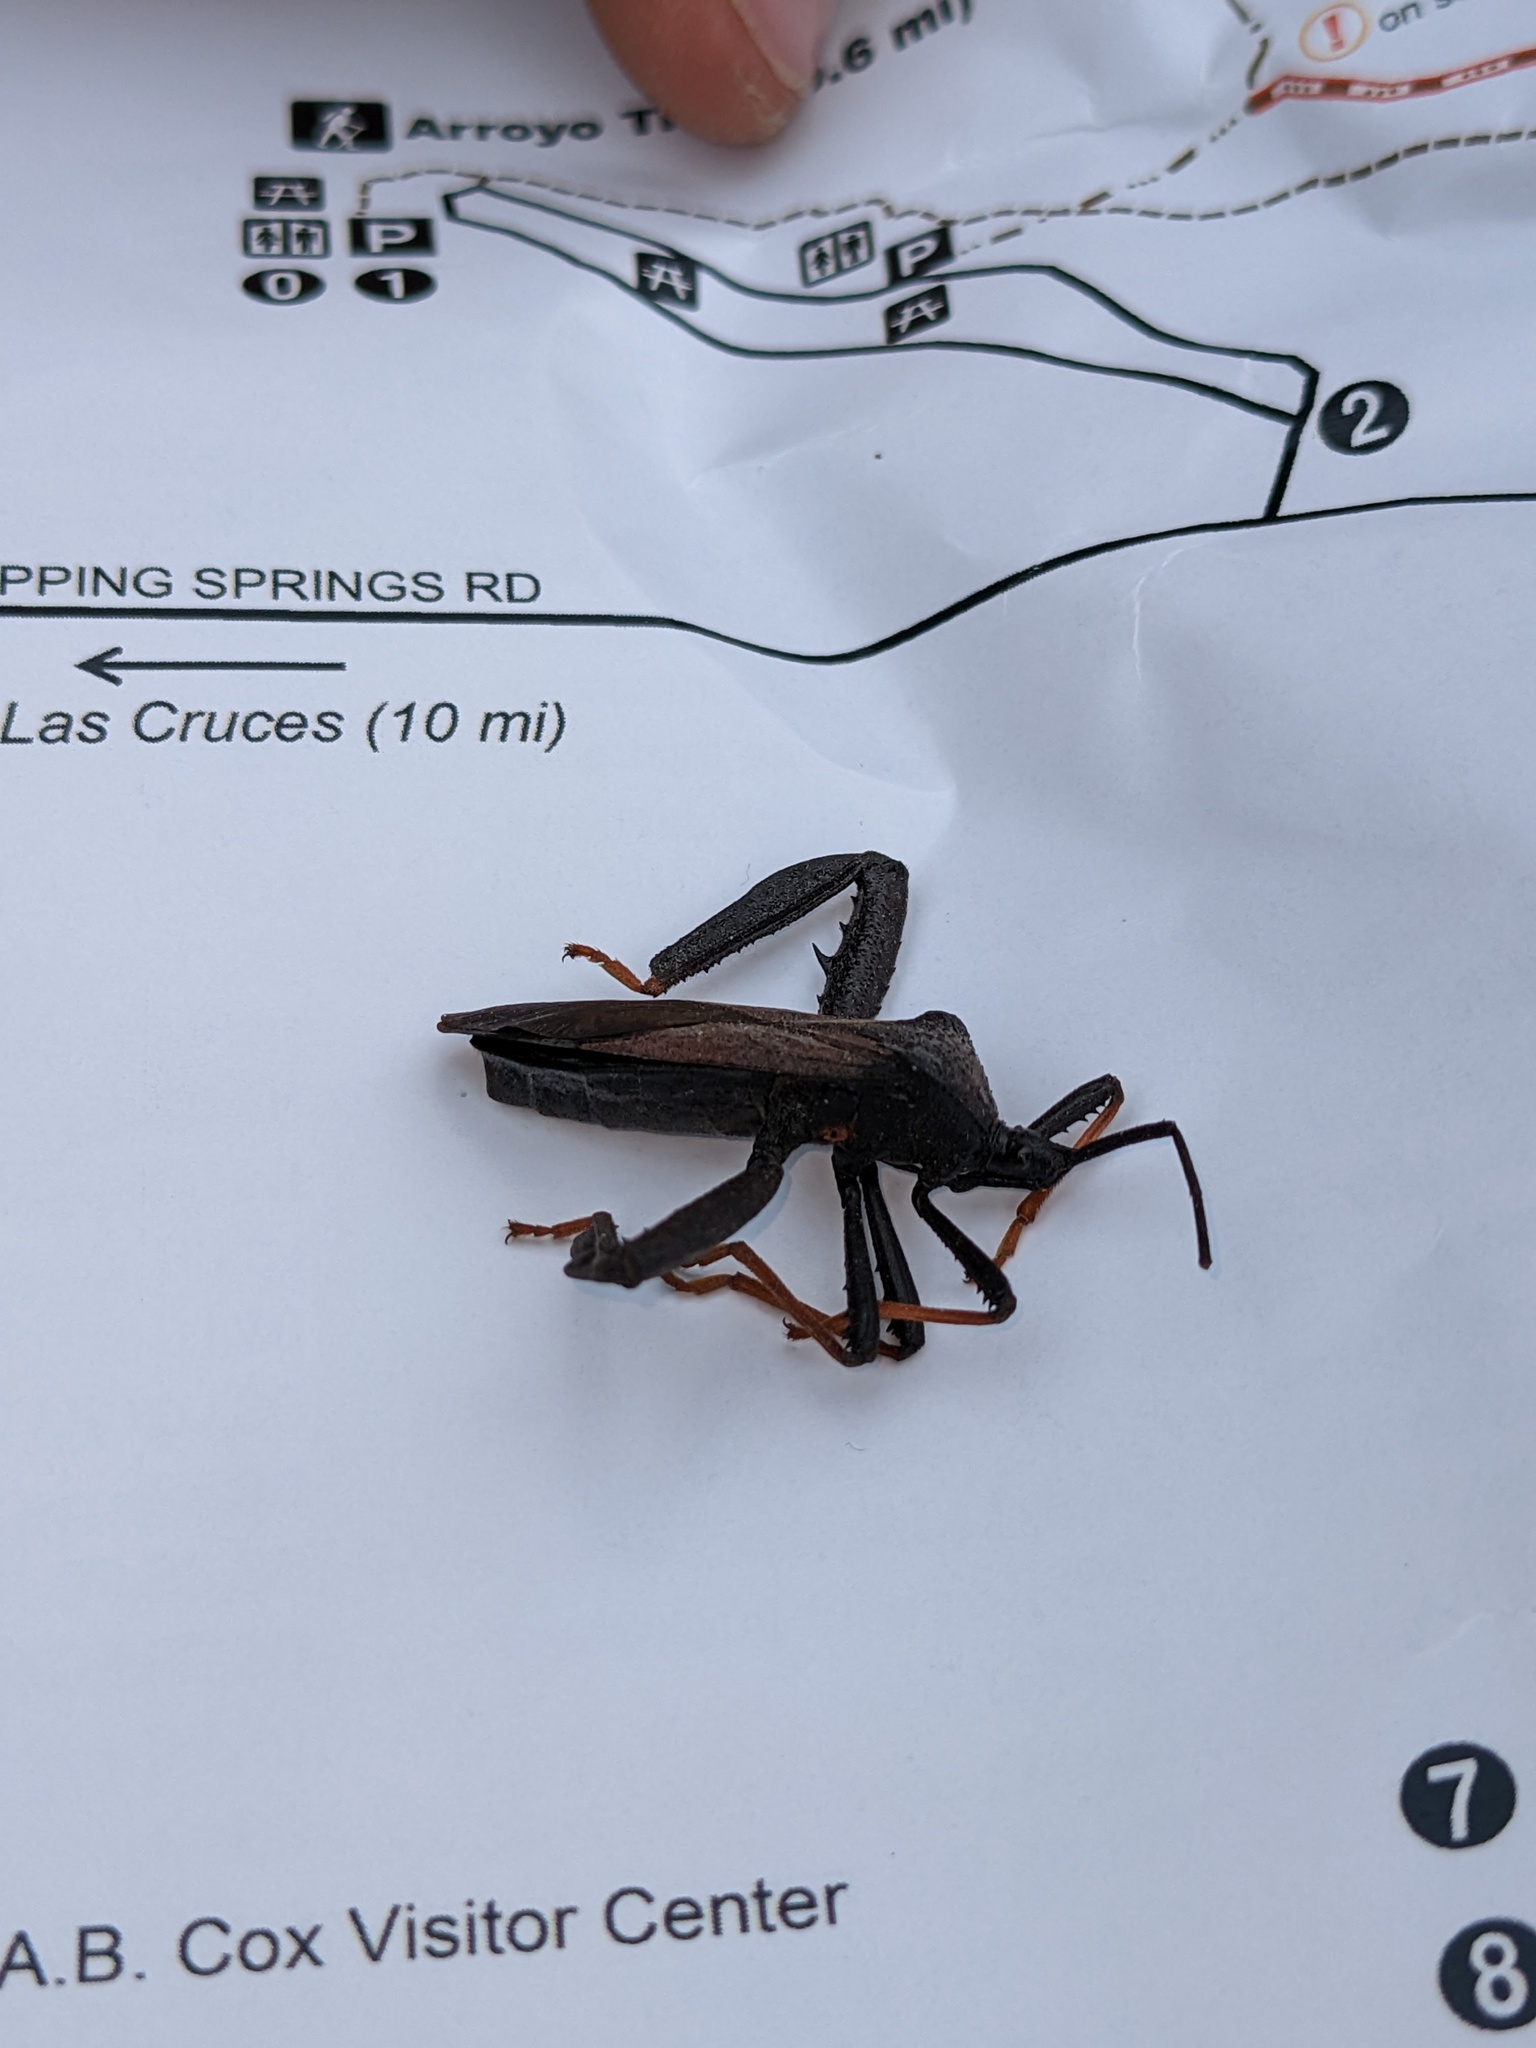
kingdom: Animalia
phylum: Arthropoda
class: Insecta
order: Hemiptera
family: Coreidae
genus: Acanthocephala
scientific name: Acanthocephala thomasi
